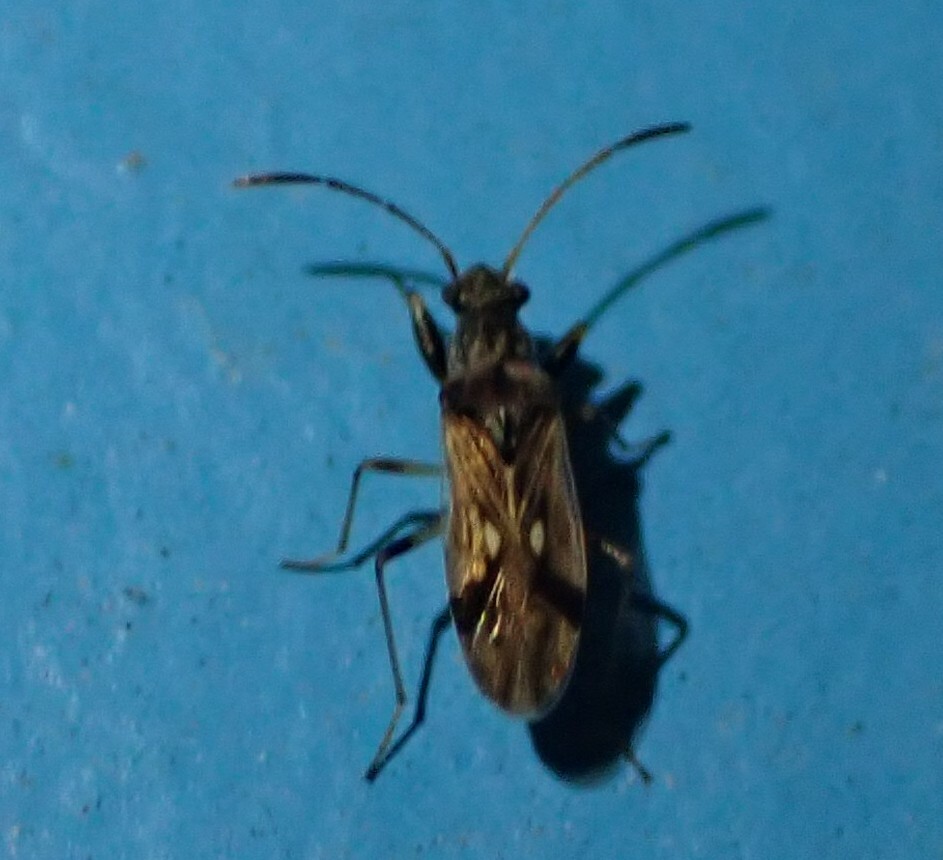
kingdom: Animalia
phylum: Arthropoda
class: Insecta
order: Hemiptera
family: Rhyparochromidae
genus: Pseudopachybrachius
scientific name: Pseudopachybrachius vinctus
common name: Dirt-colored seed bug
